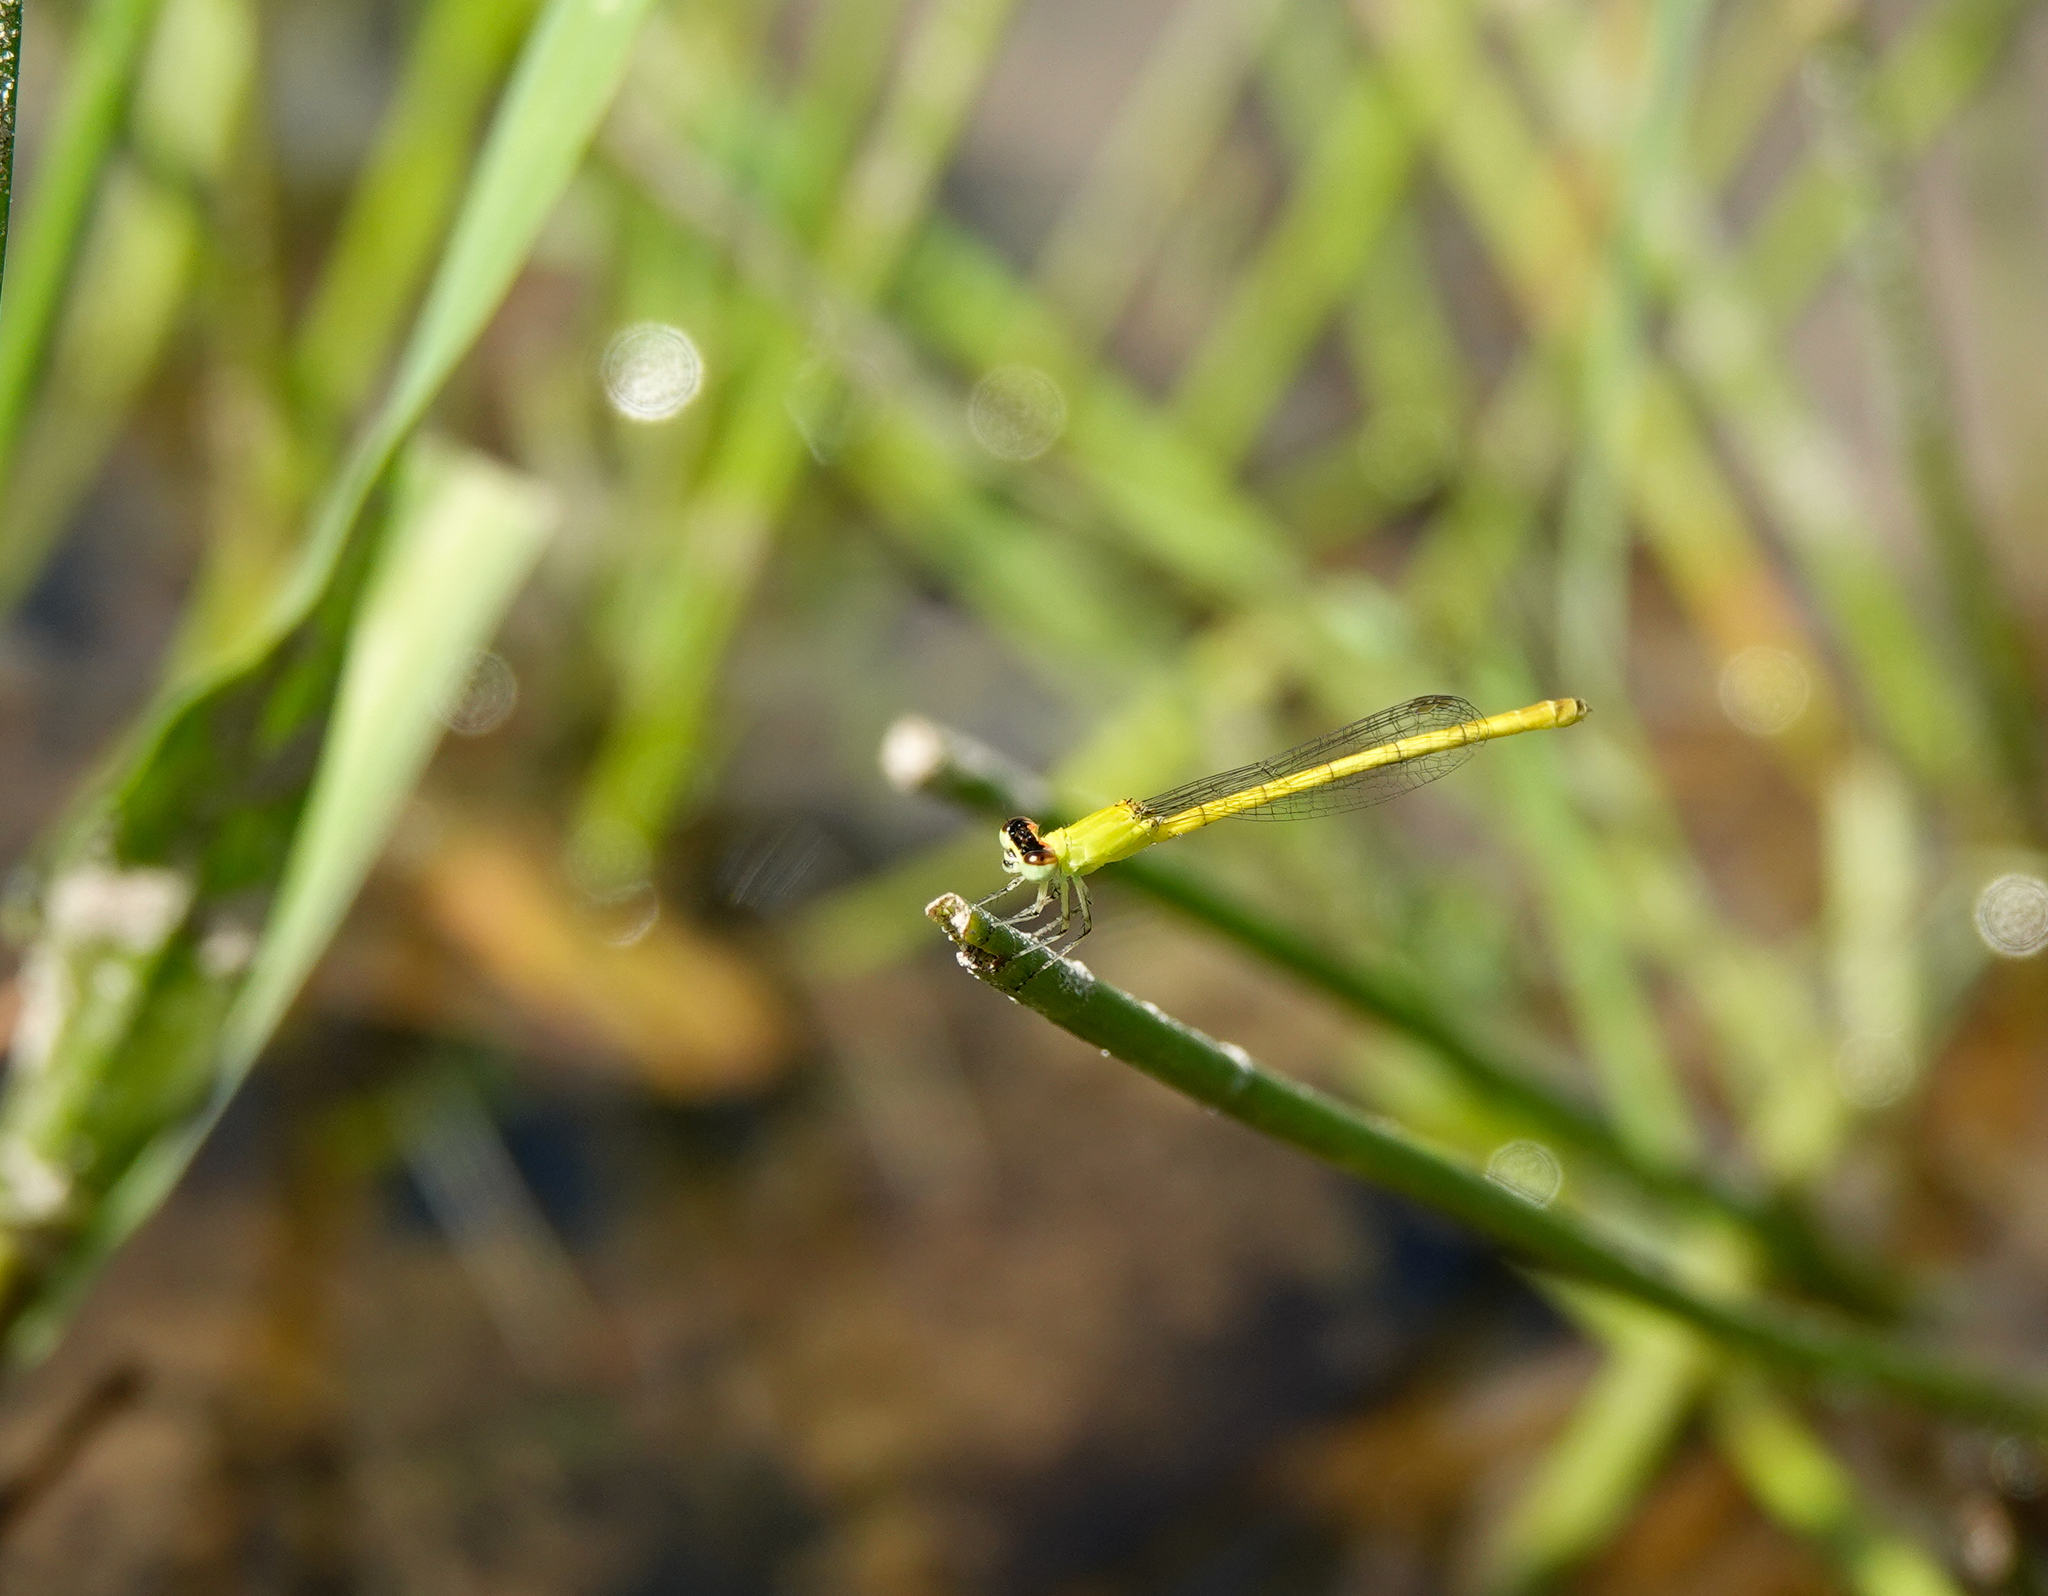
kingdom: Animalia
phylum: Arthropoda
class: Insecta
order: Odonata
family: Coenagrionidae
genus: Agriocnemis
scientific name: Agriocnemis kalinga
